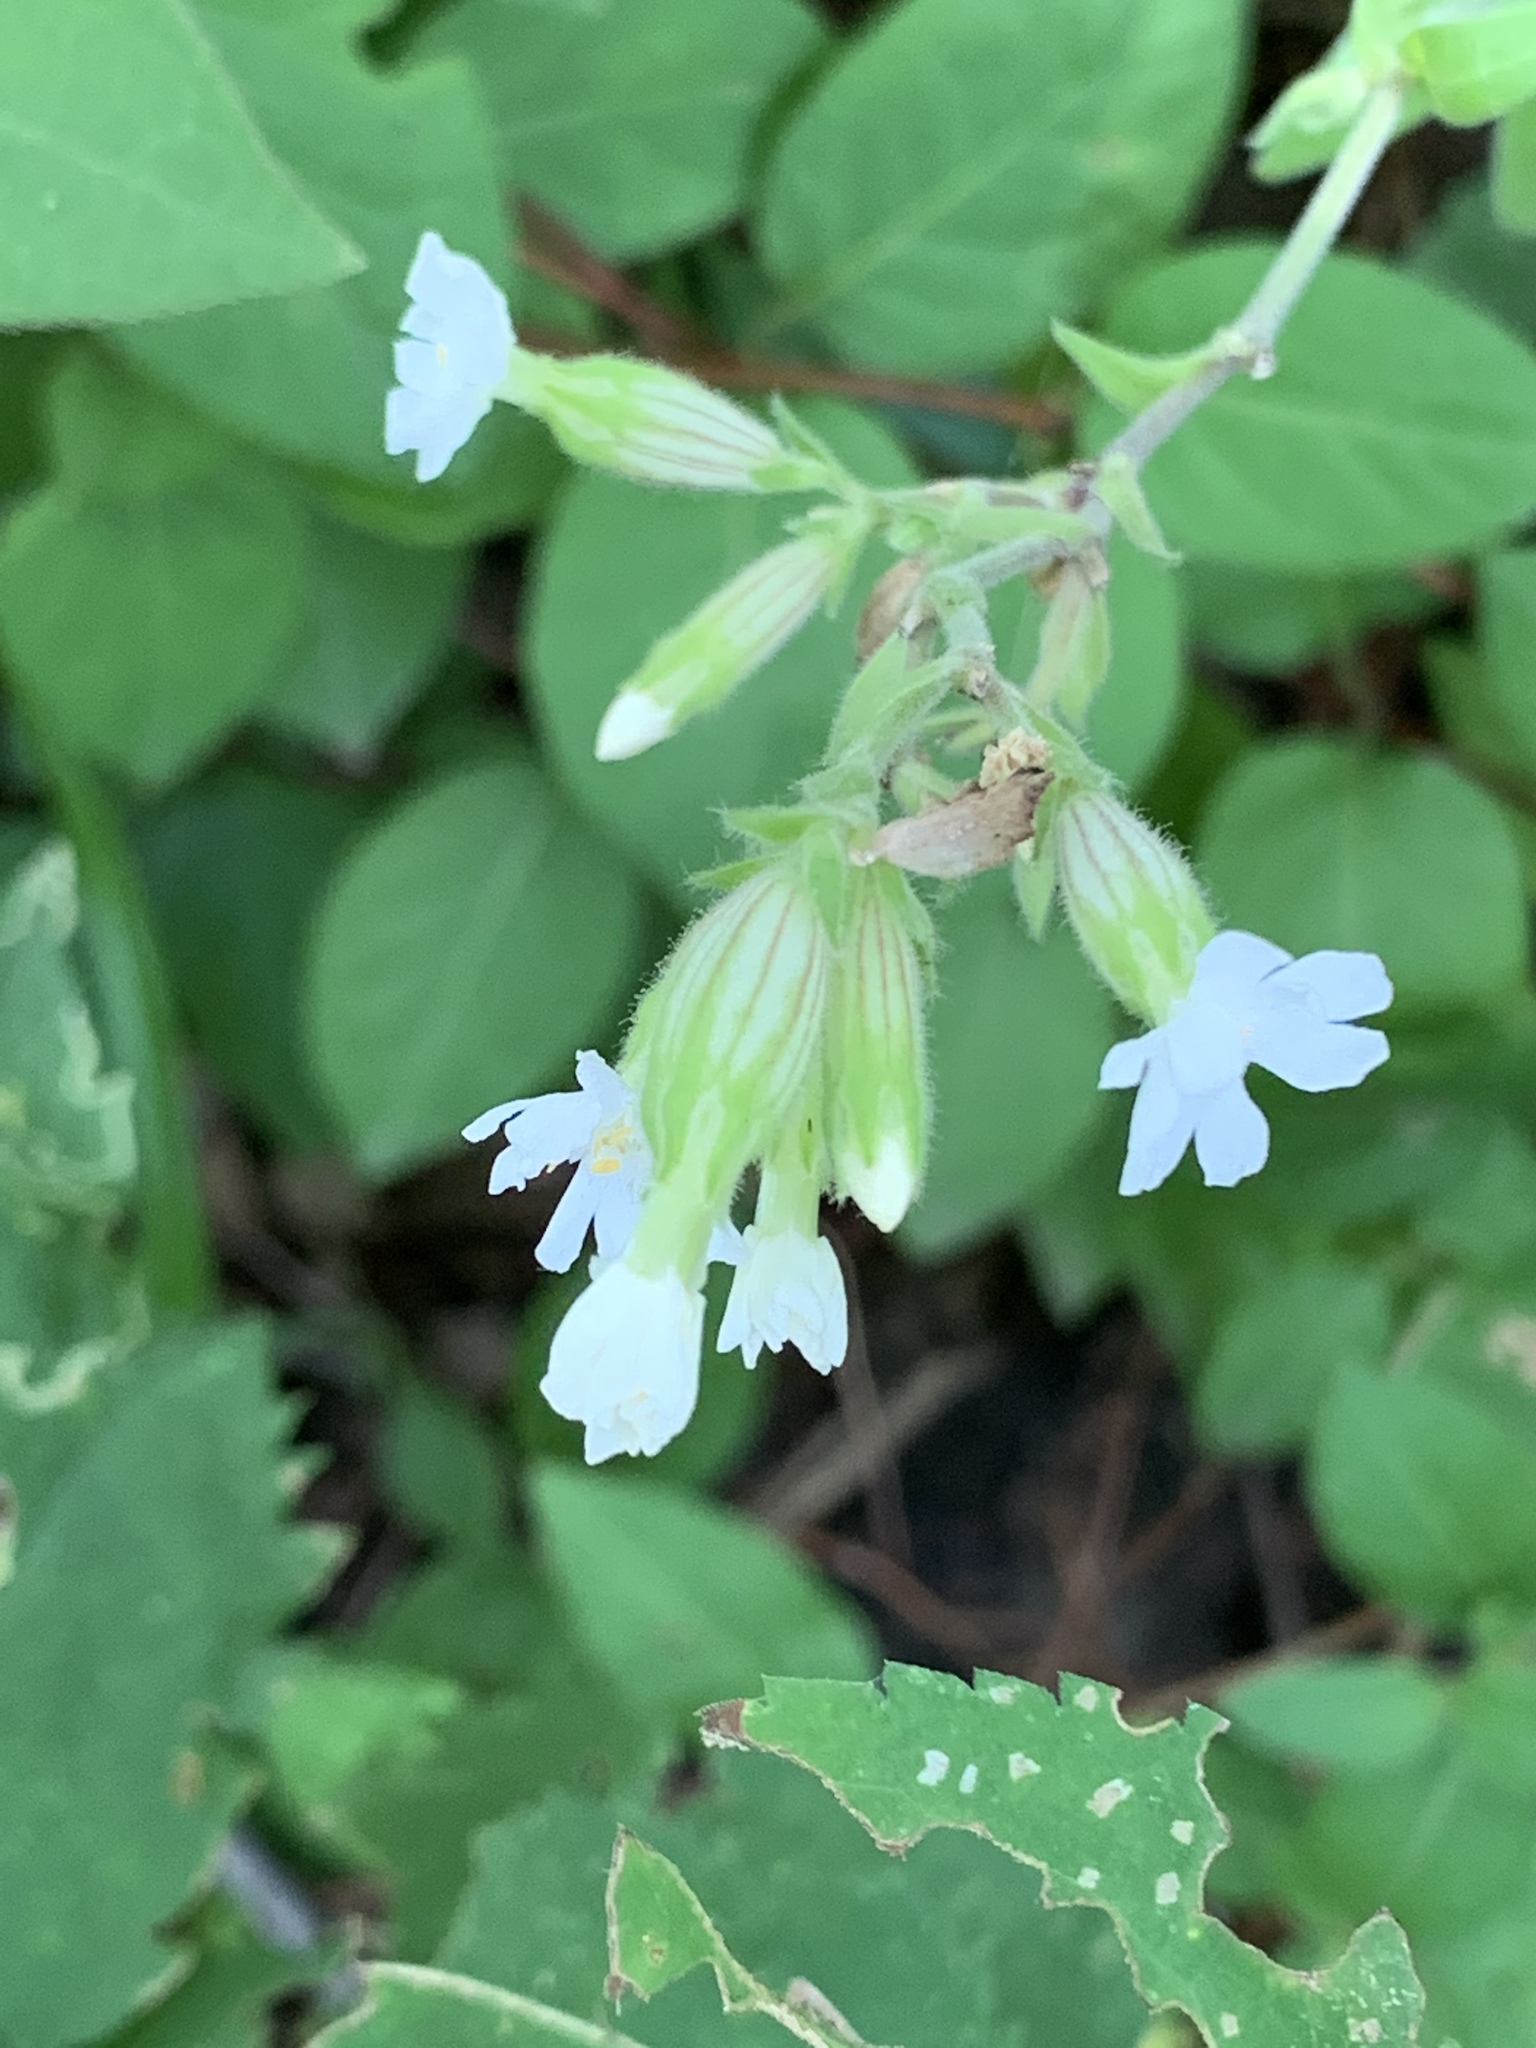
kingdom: Plantae
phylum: Tracheophyta
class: Magnoliopsida
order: Caryophyllales
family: Caryophyllaceae
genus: Silene
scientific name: Silene latifolia
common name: White campion
